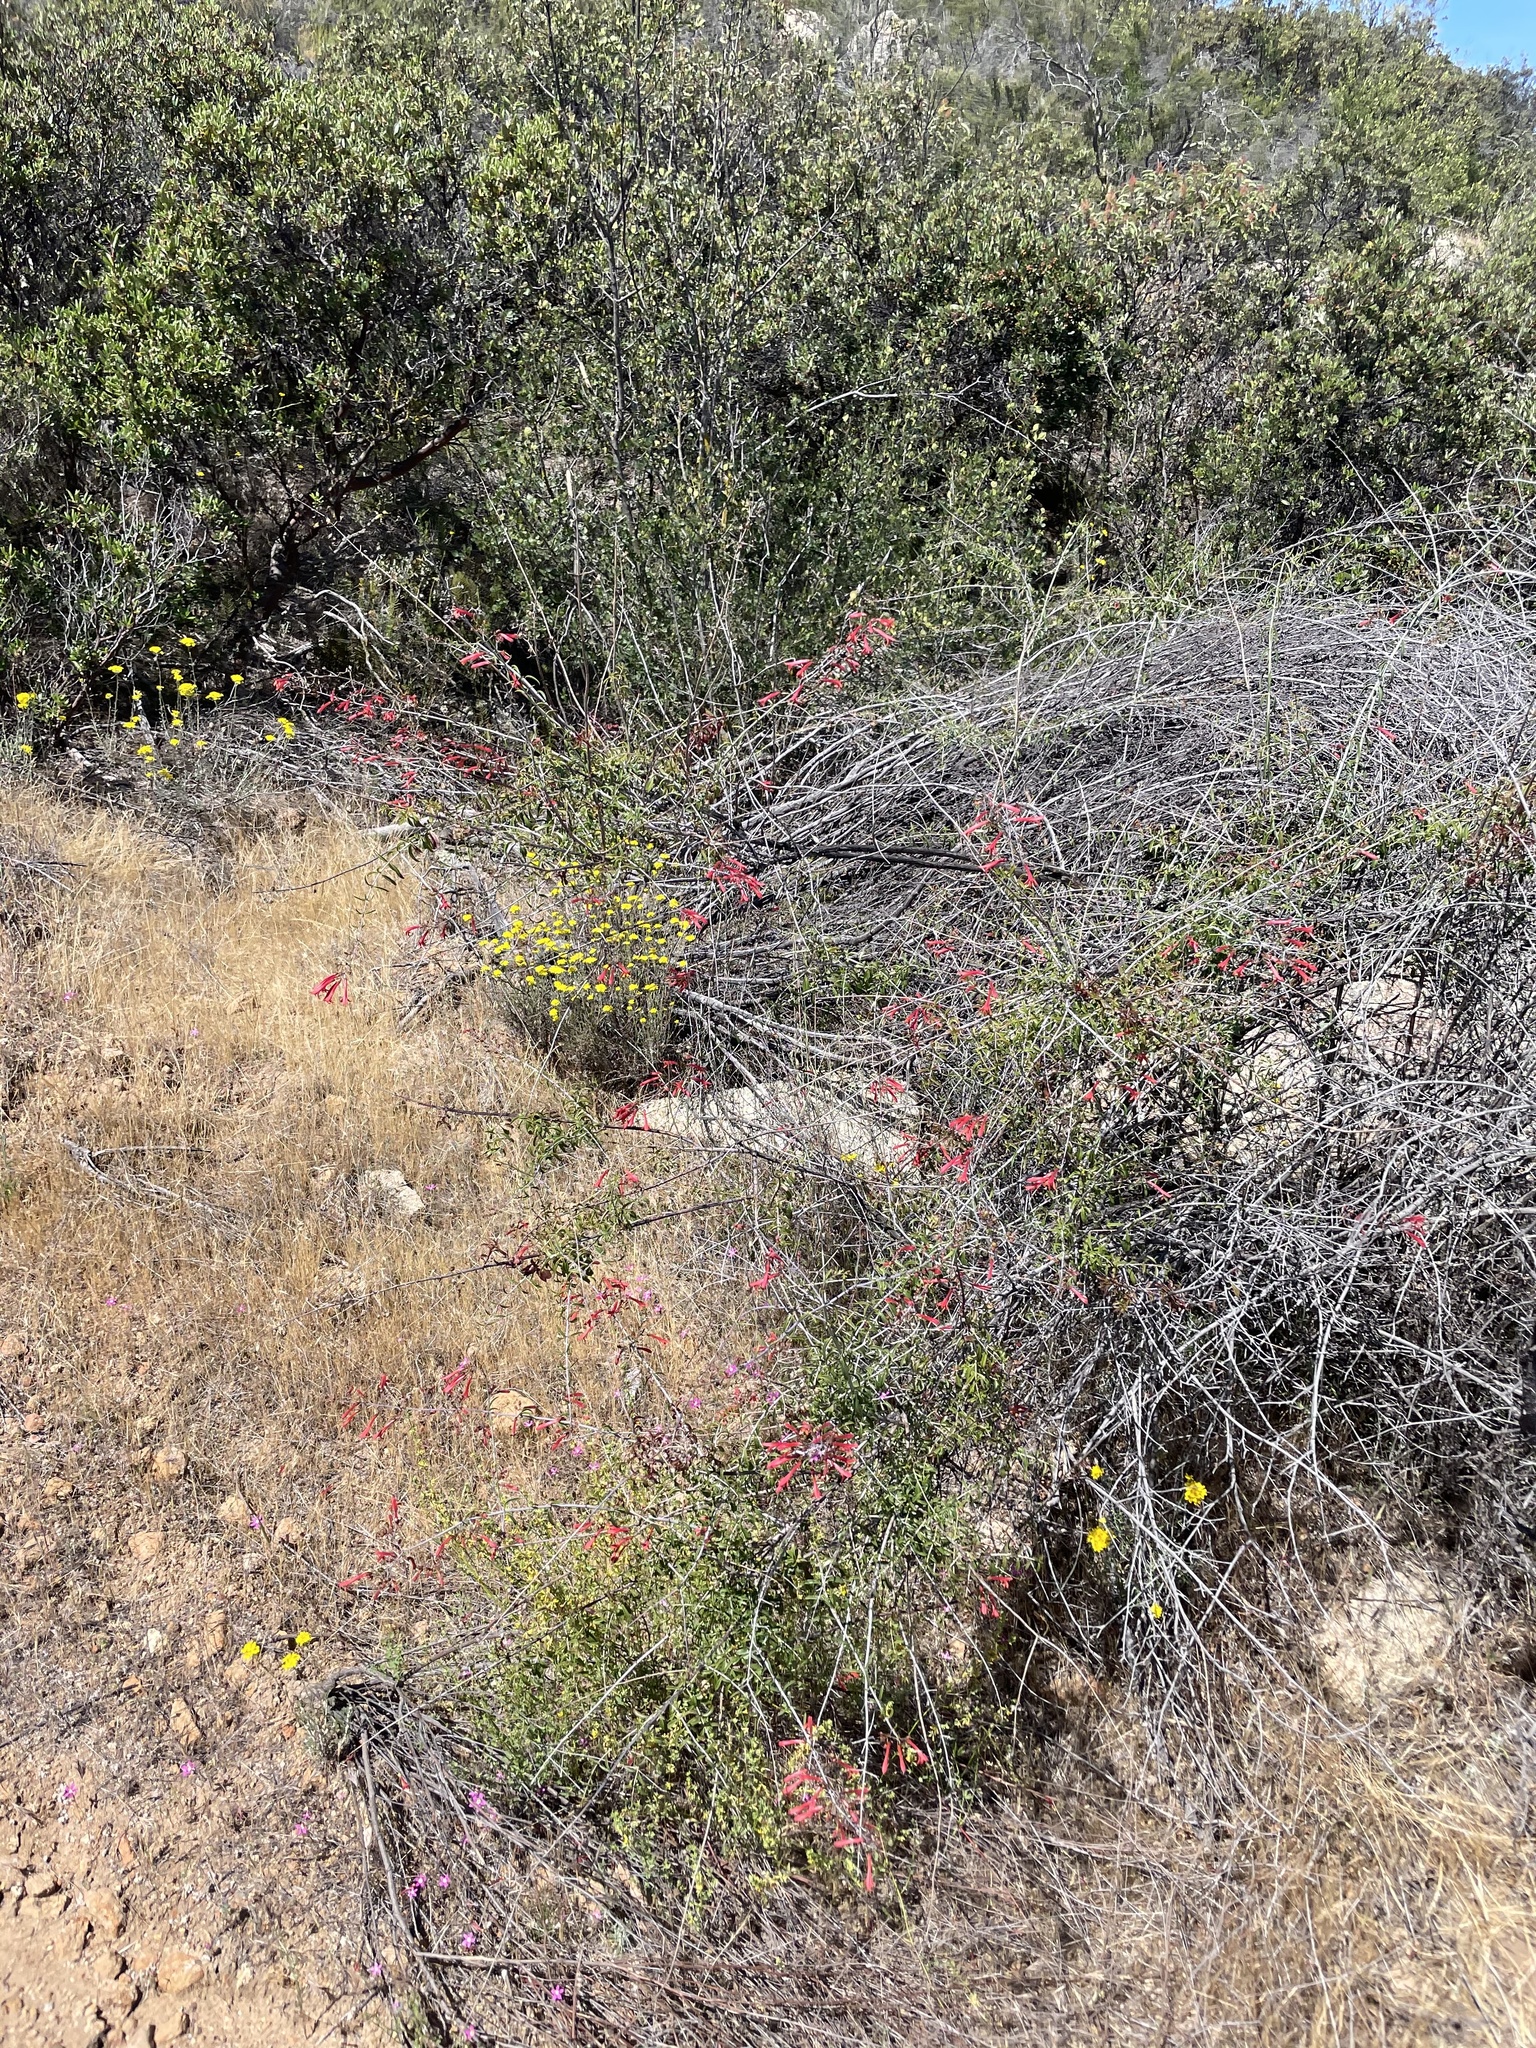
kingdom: Plantae
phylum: Tracheophyta
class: Magnoliopsida
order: Lamiales
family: Plantaginaceae
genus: Keckiella
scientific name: Keckiella ternata
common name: Scarlet keckiella
